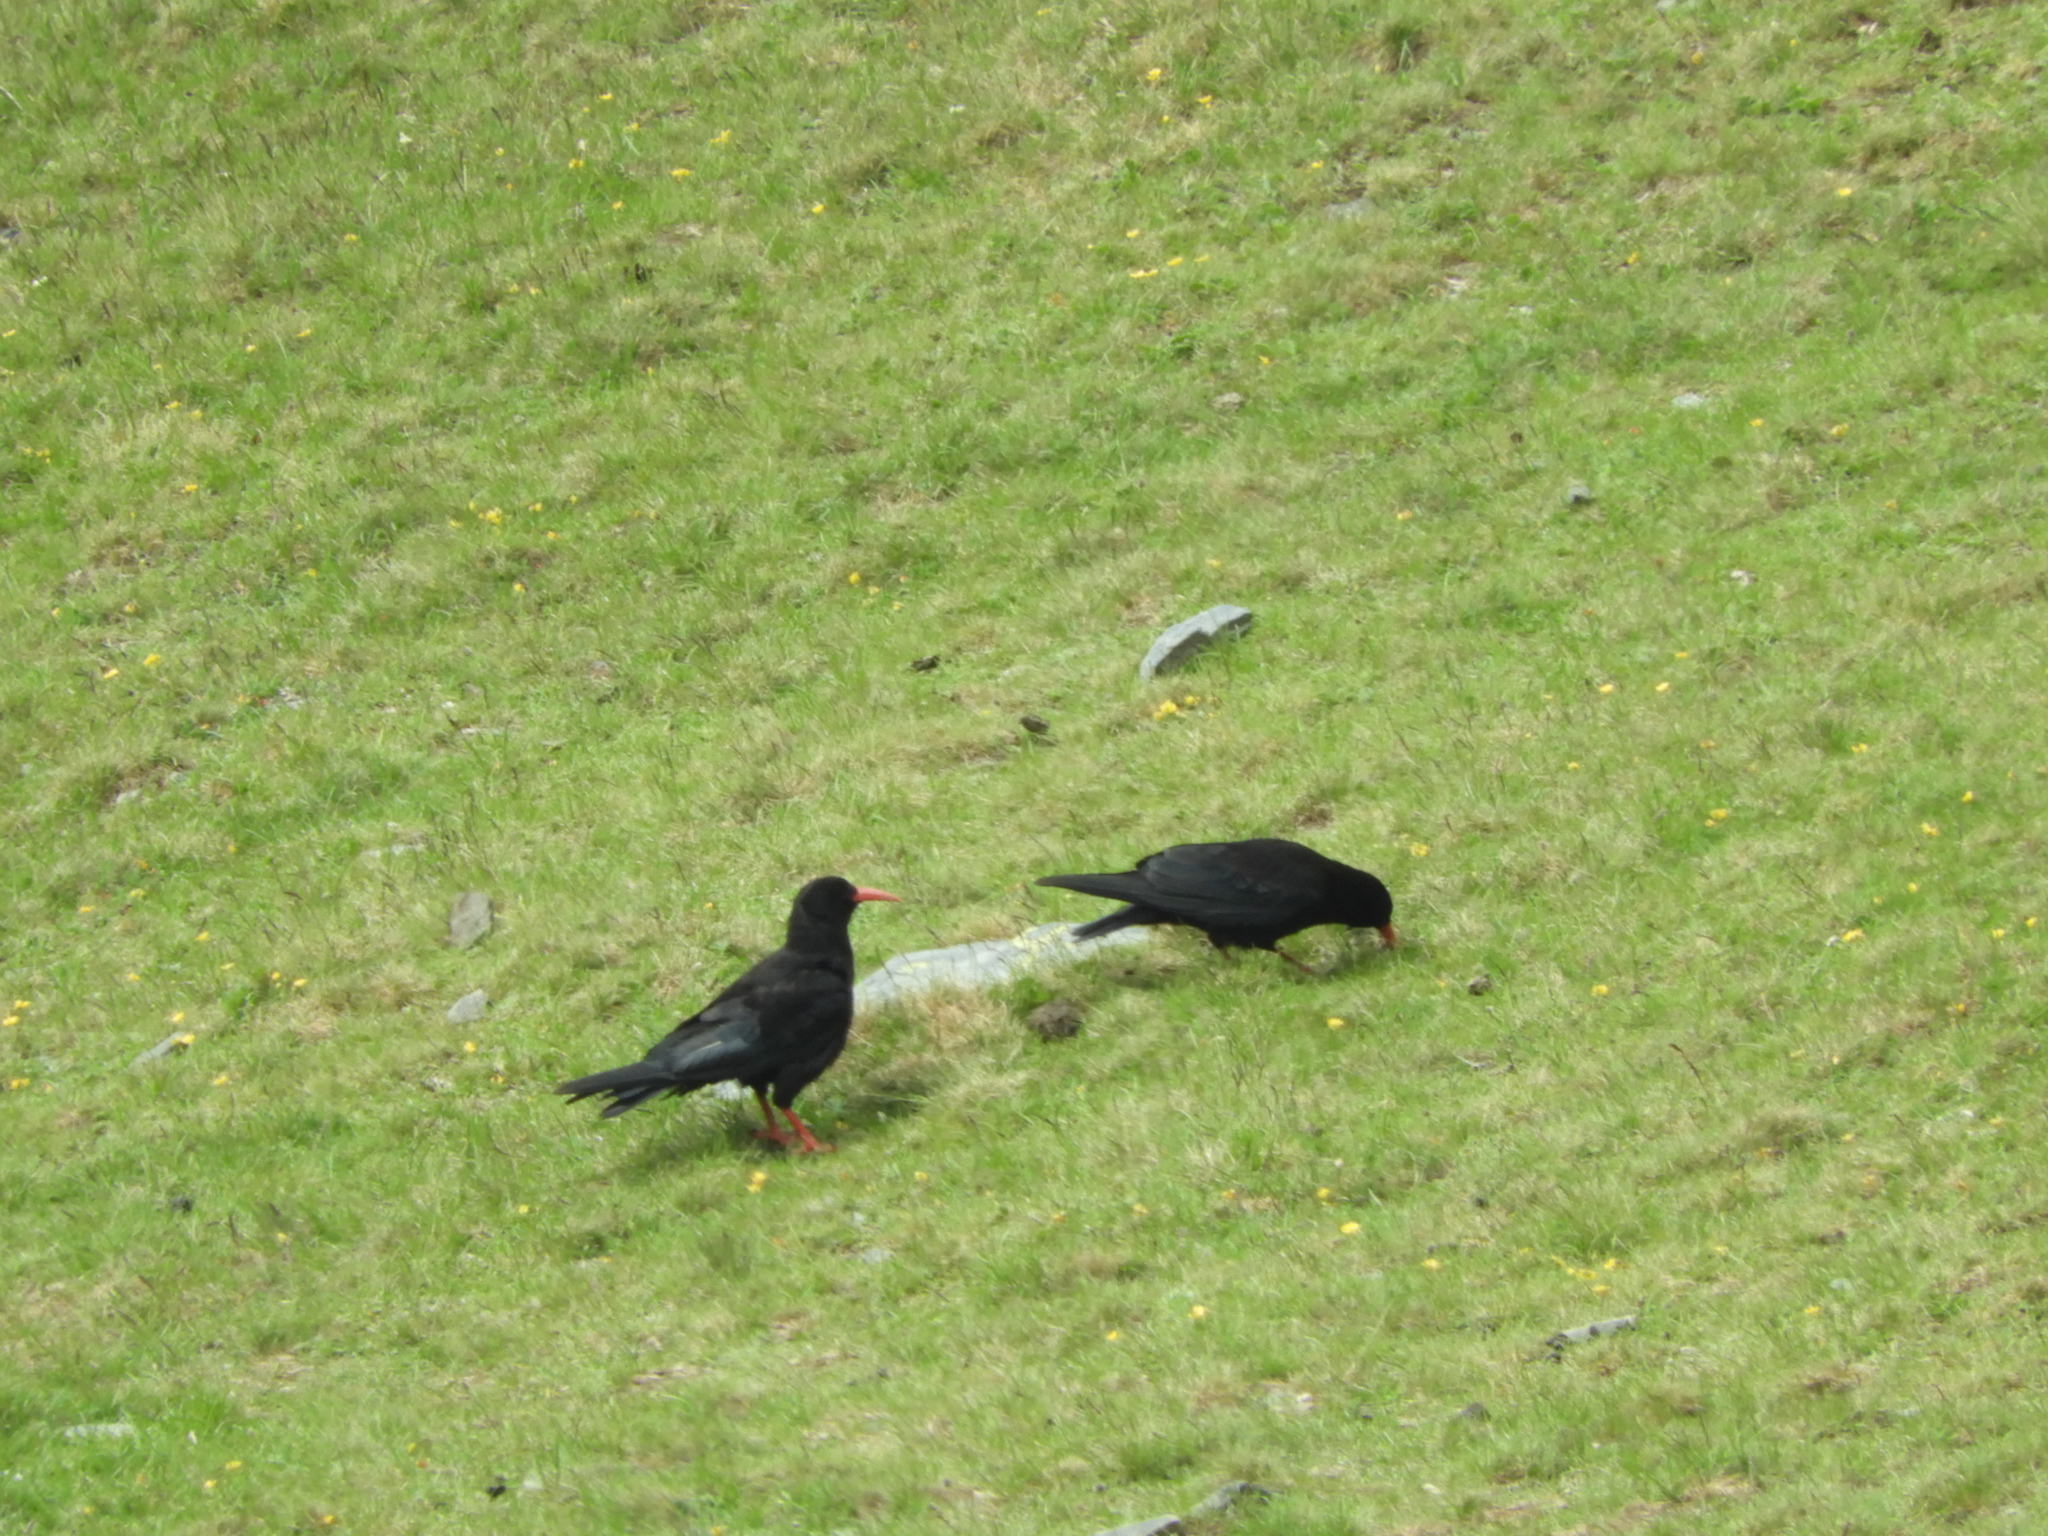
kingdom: Animalia
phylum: Chordata
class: Aves
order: Passeriformes
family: Corvidae
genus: Pyrrhocorax
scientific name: Pyrrhocorax pyrrhocorax
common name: Red-billed chough
